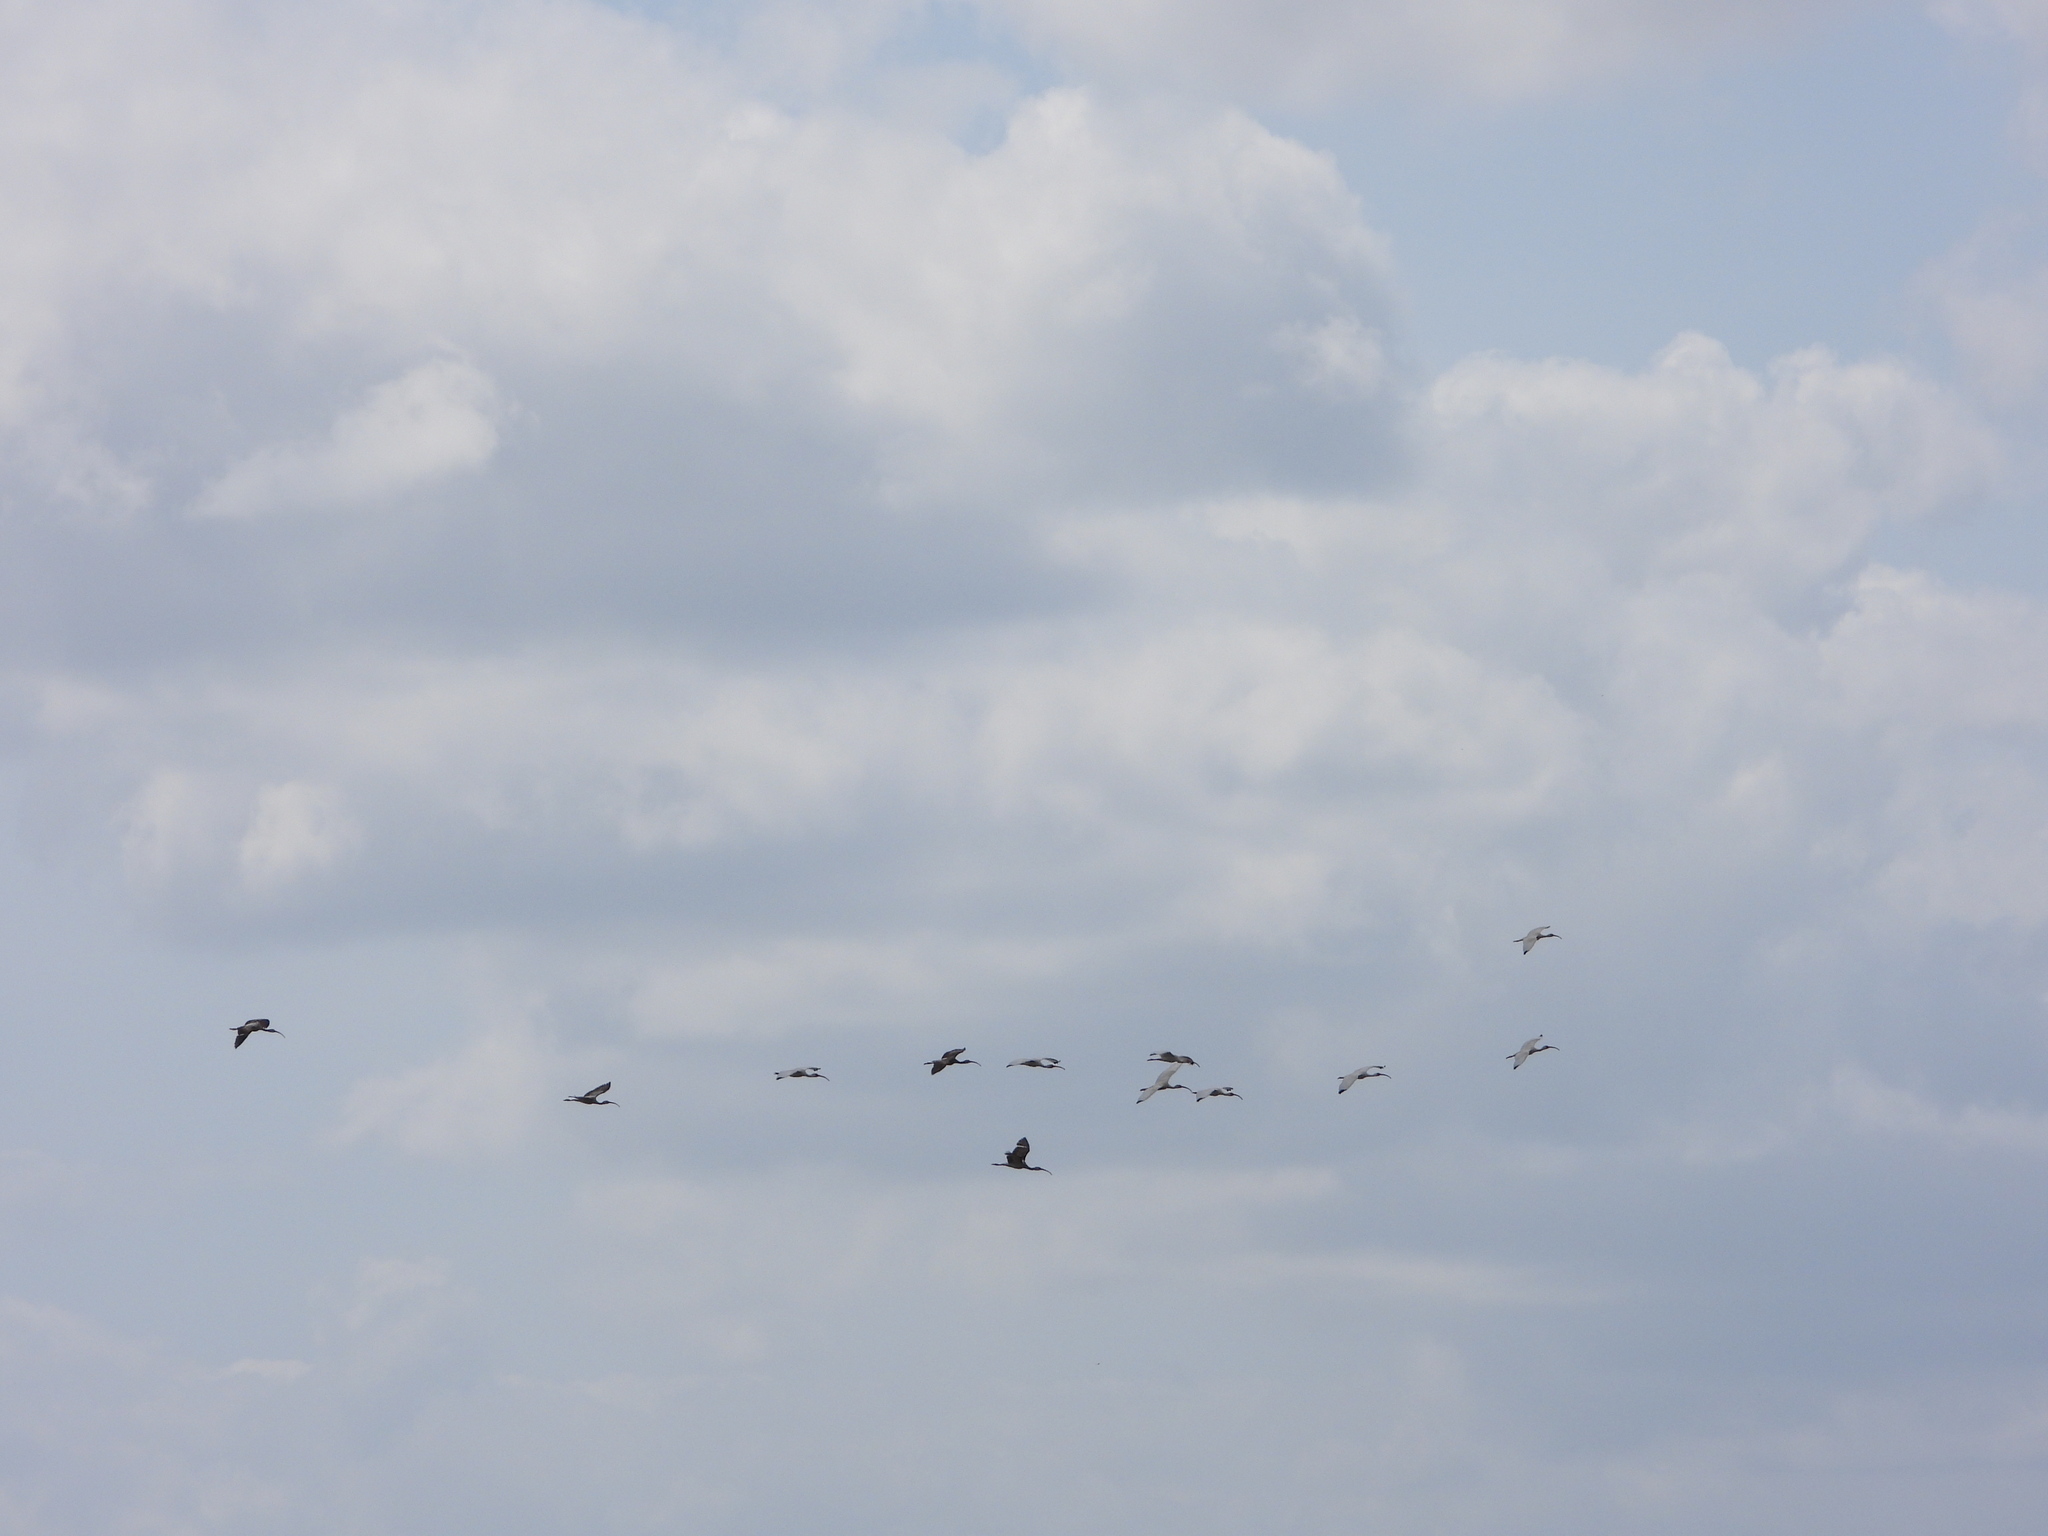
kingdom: Animalia
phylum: Chordata
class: Aves
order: Pelecaniformes
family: Threskiornithidae
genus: Eudocimus
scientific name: Eudocimus albus
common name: White ibis
